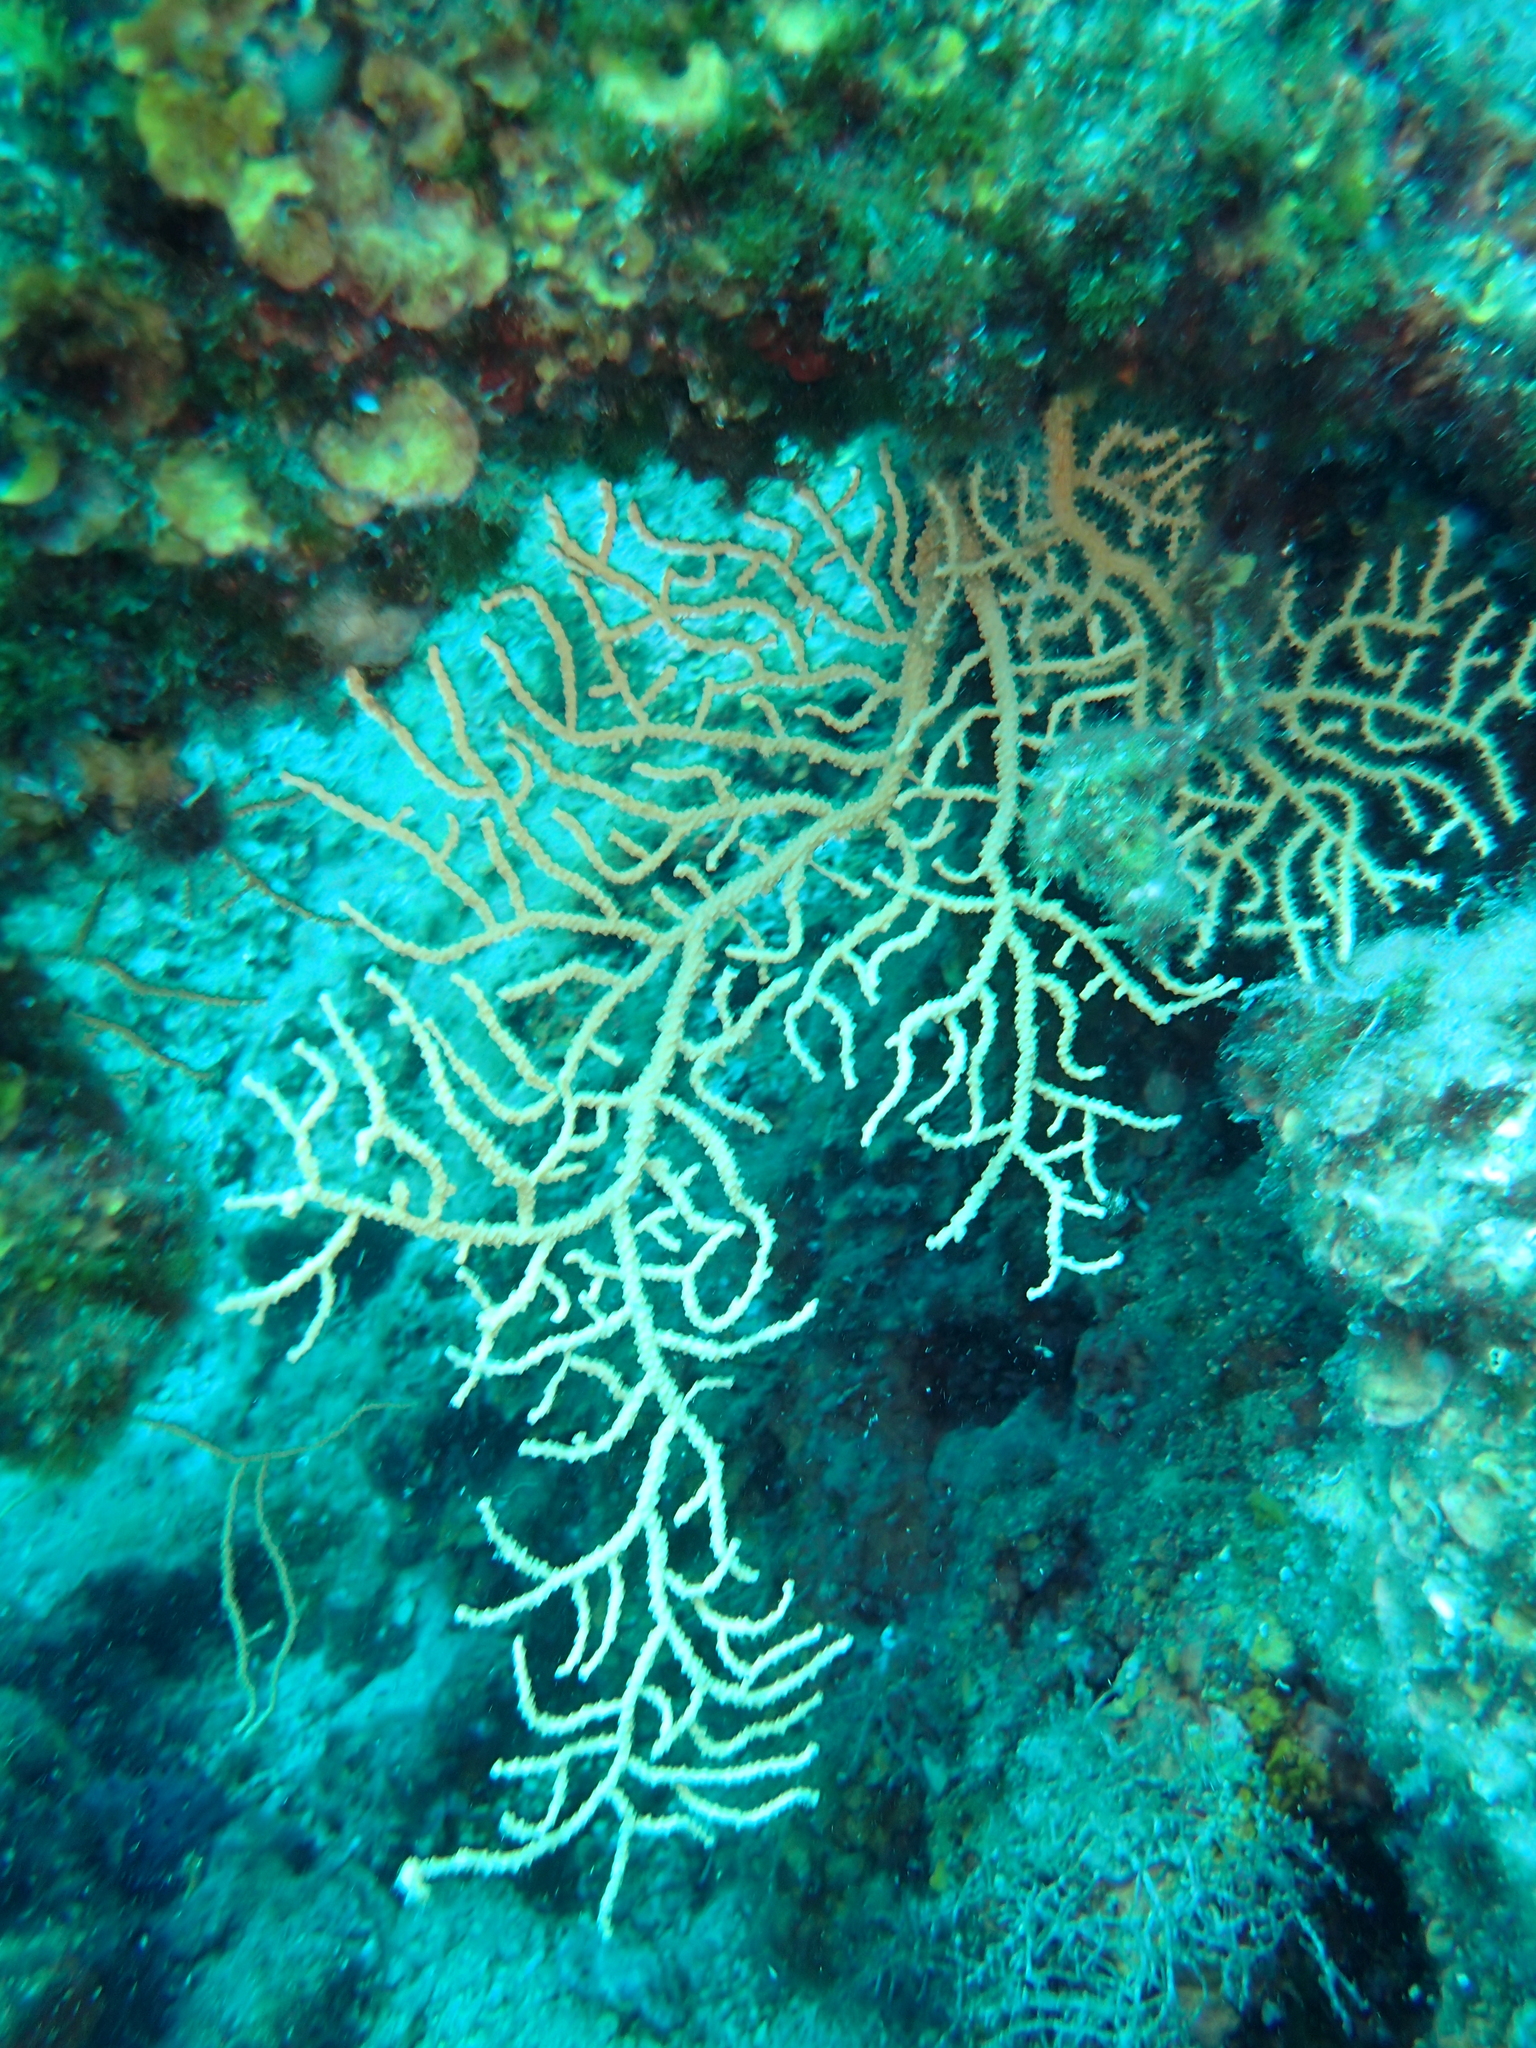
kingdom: Animalia
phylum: Cnidaria
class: Anthozoa
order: Malacalcyonacea
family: Eunicellidae
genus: Eunicella
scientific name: Eunicella cavolini
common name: Yellow gorgonian
